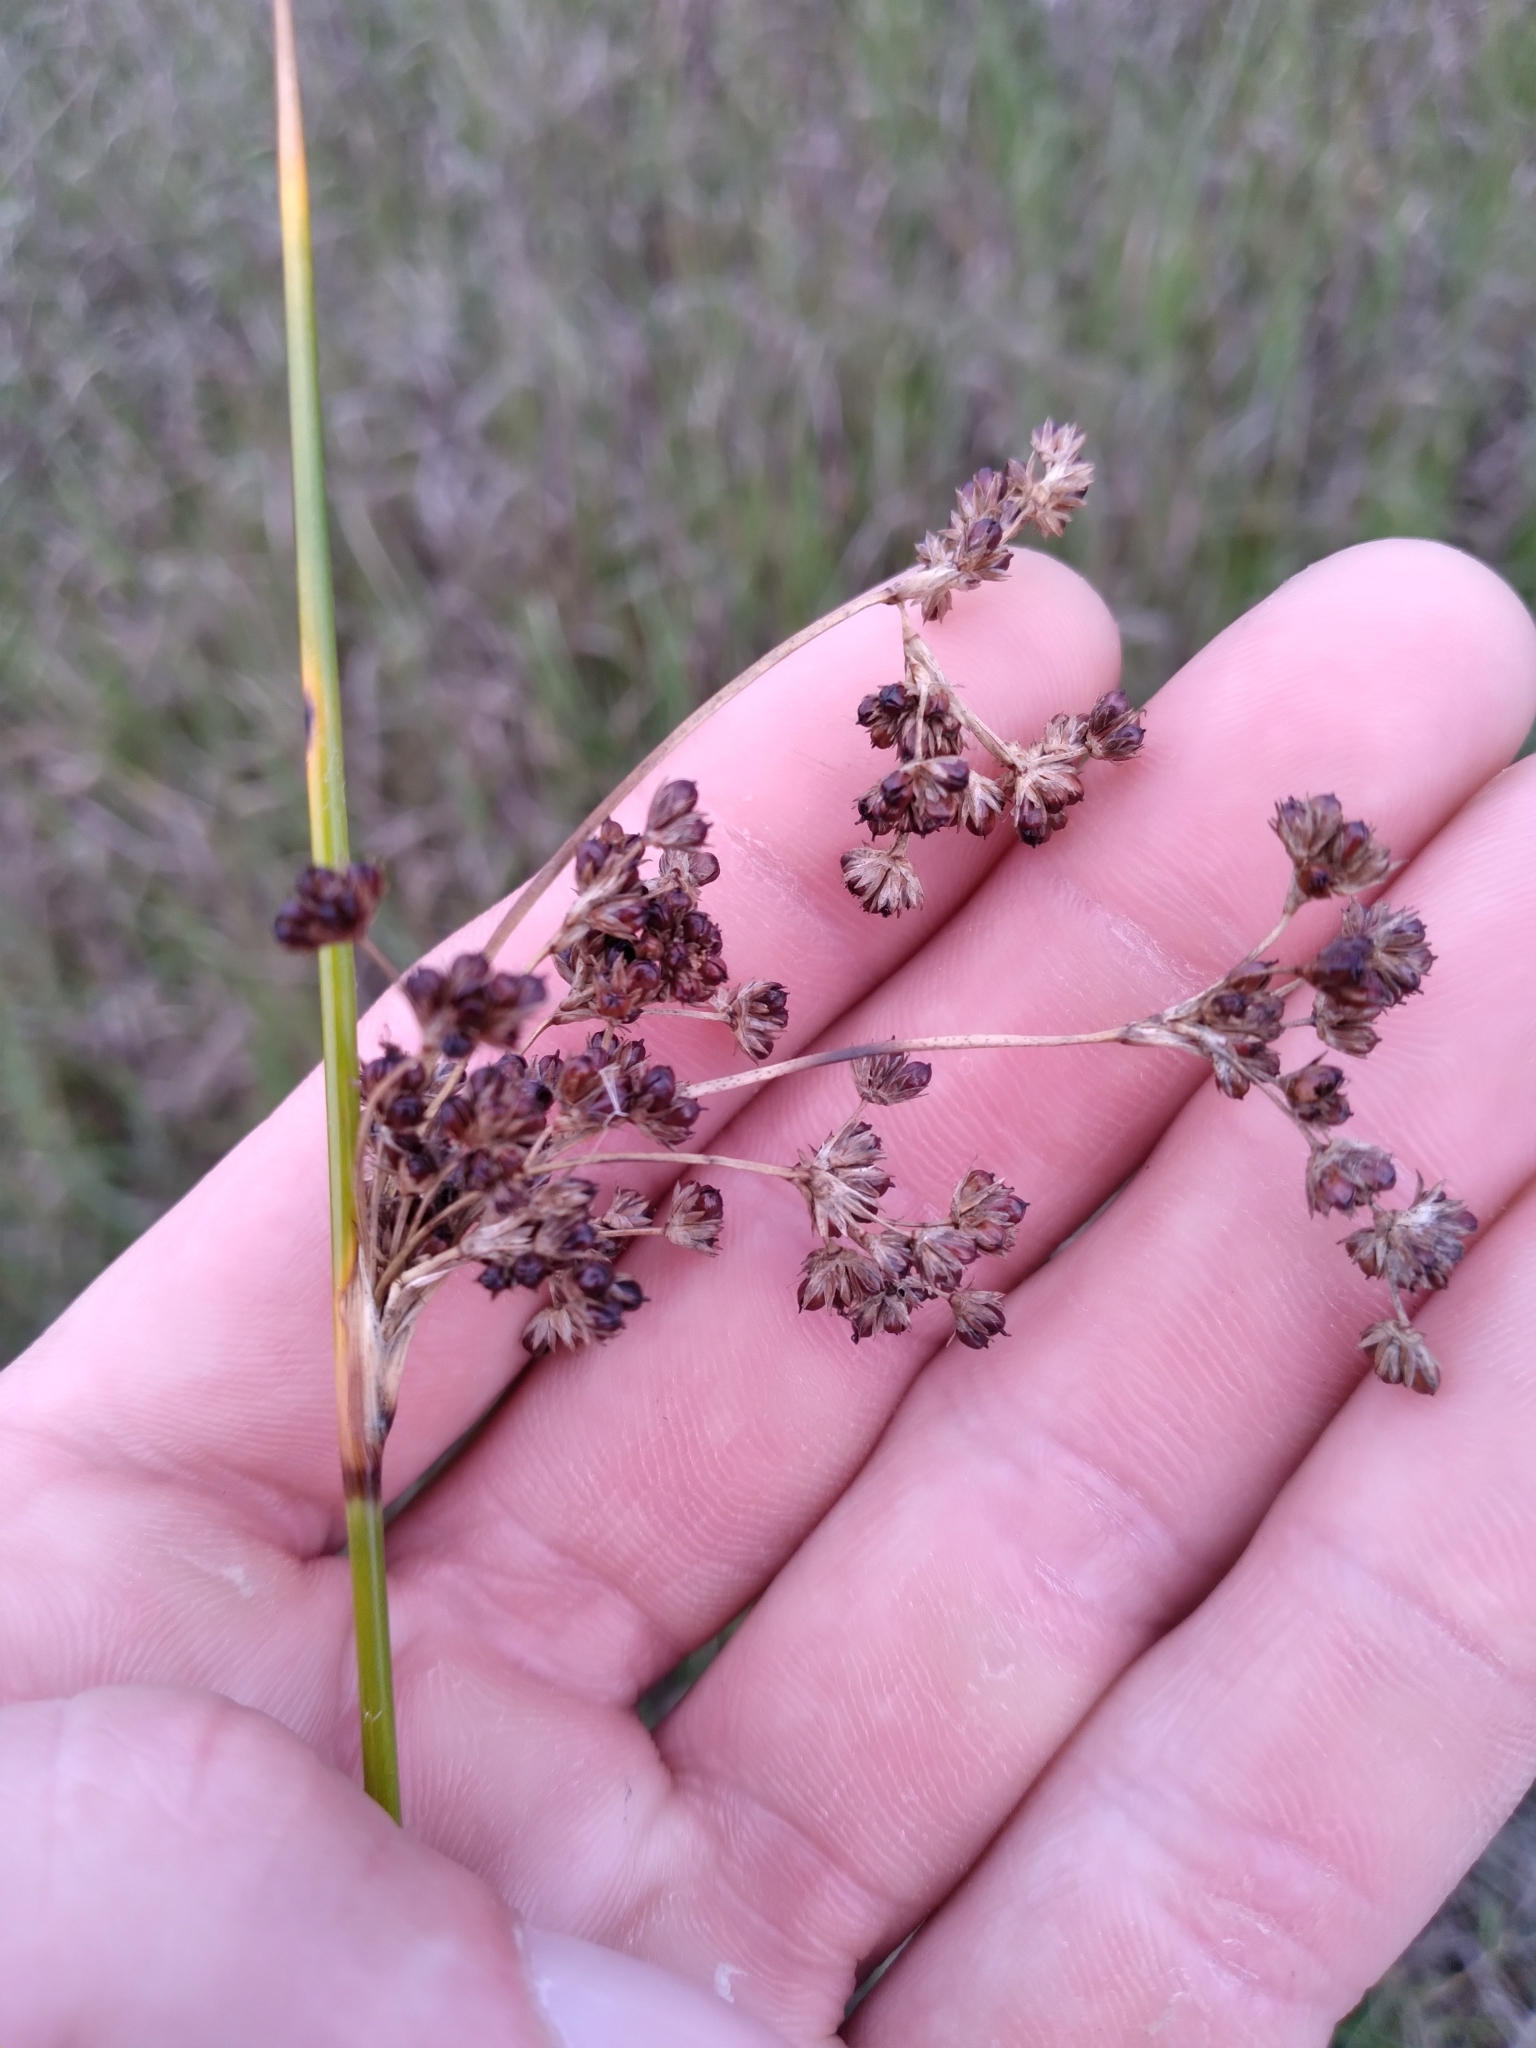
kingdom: Plantae
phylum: Tracheophyta
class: Liliopsida
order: Poales
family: Juncaceae
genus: Juncus
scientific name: Juncus roemerianus
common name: Roemer's rush
